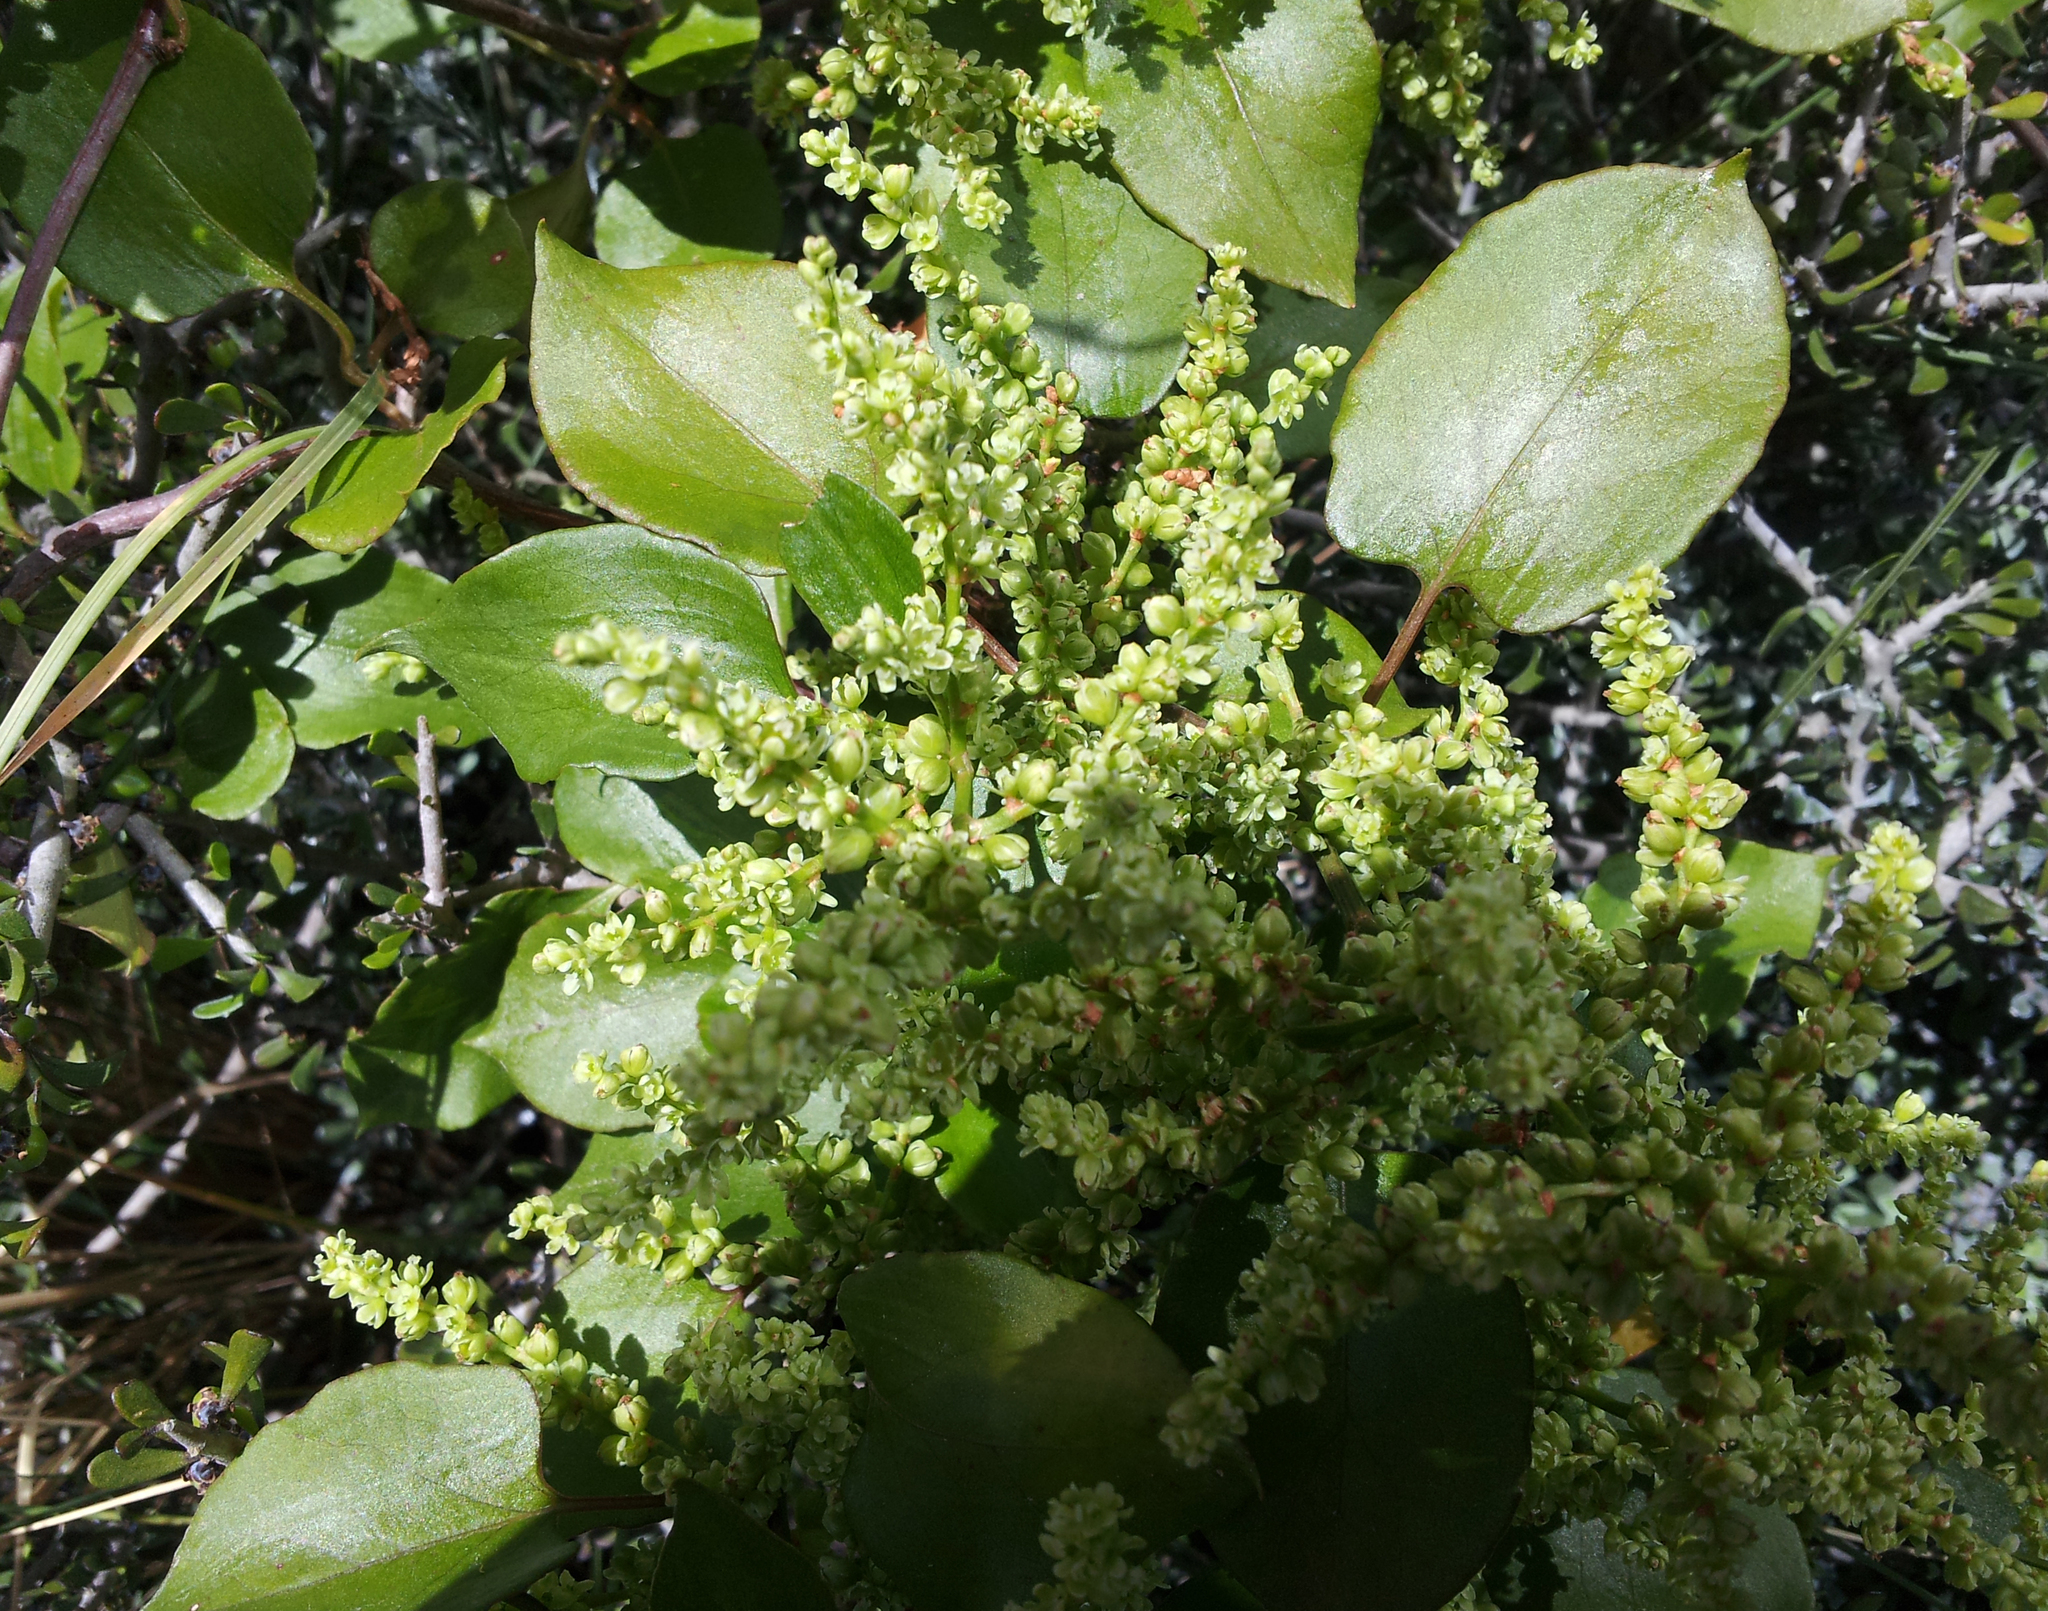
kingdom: Plantae
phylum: Tracheophyta
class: Magnoliopsida
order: Caryophyllales
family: Polygonaceae
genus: Muehlenbeckia
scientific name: Muehlenbeckia australis
